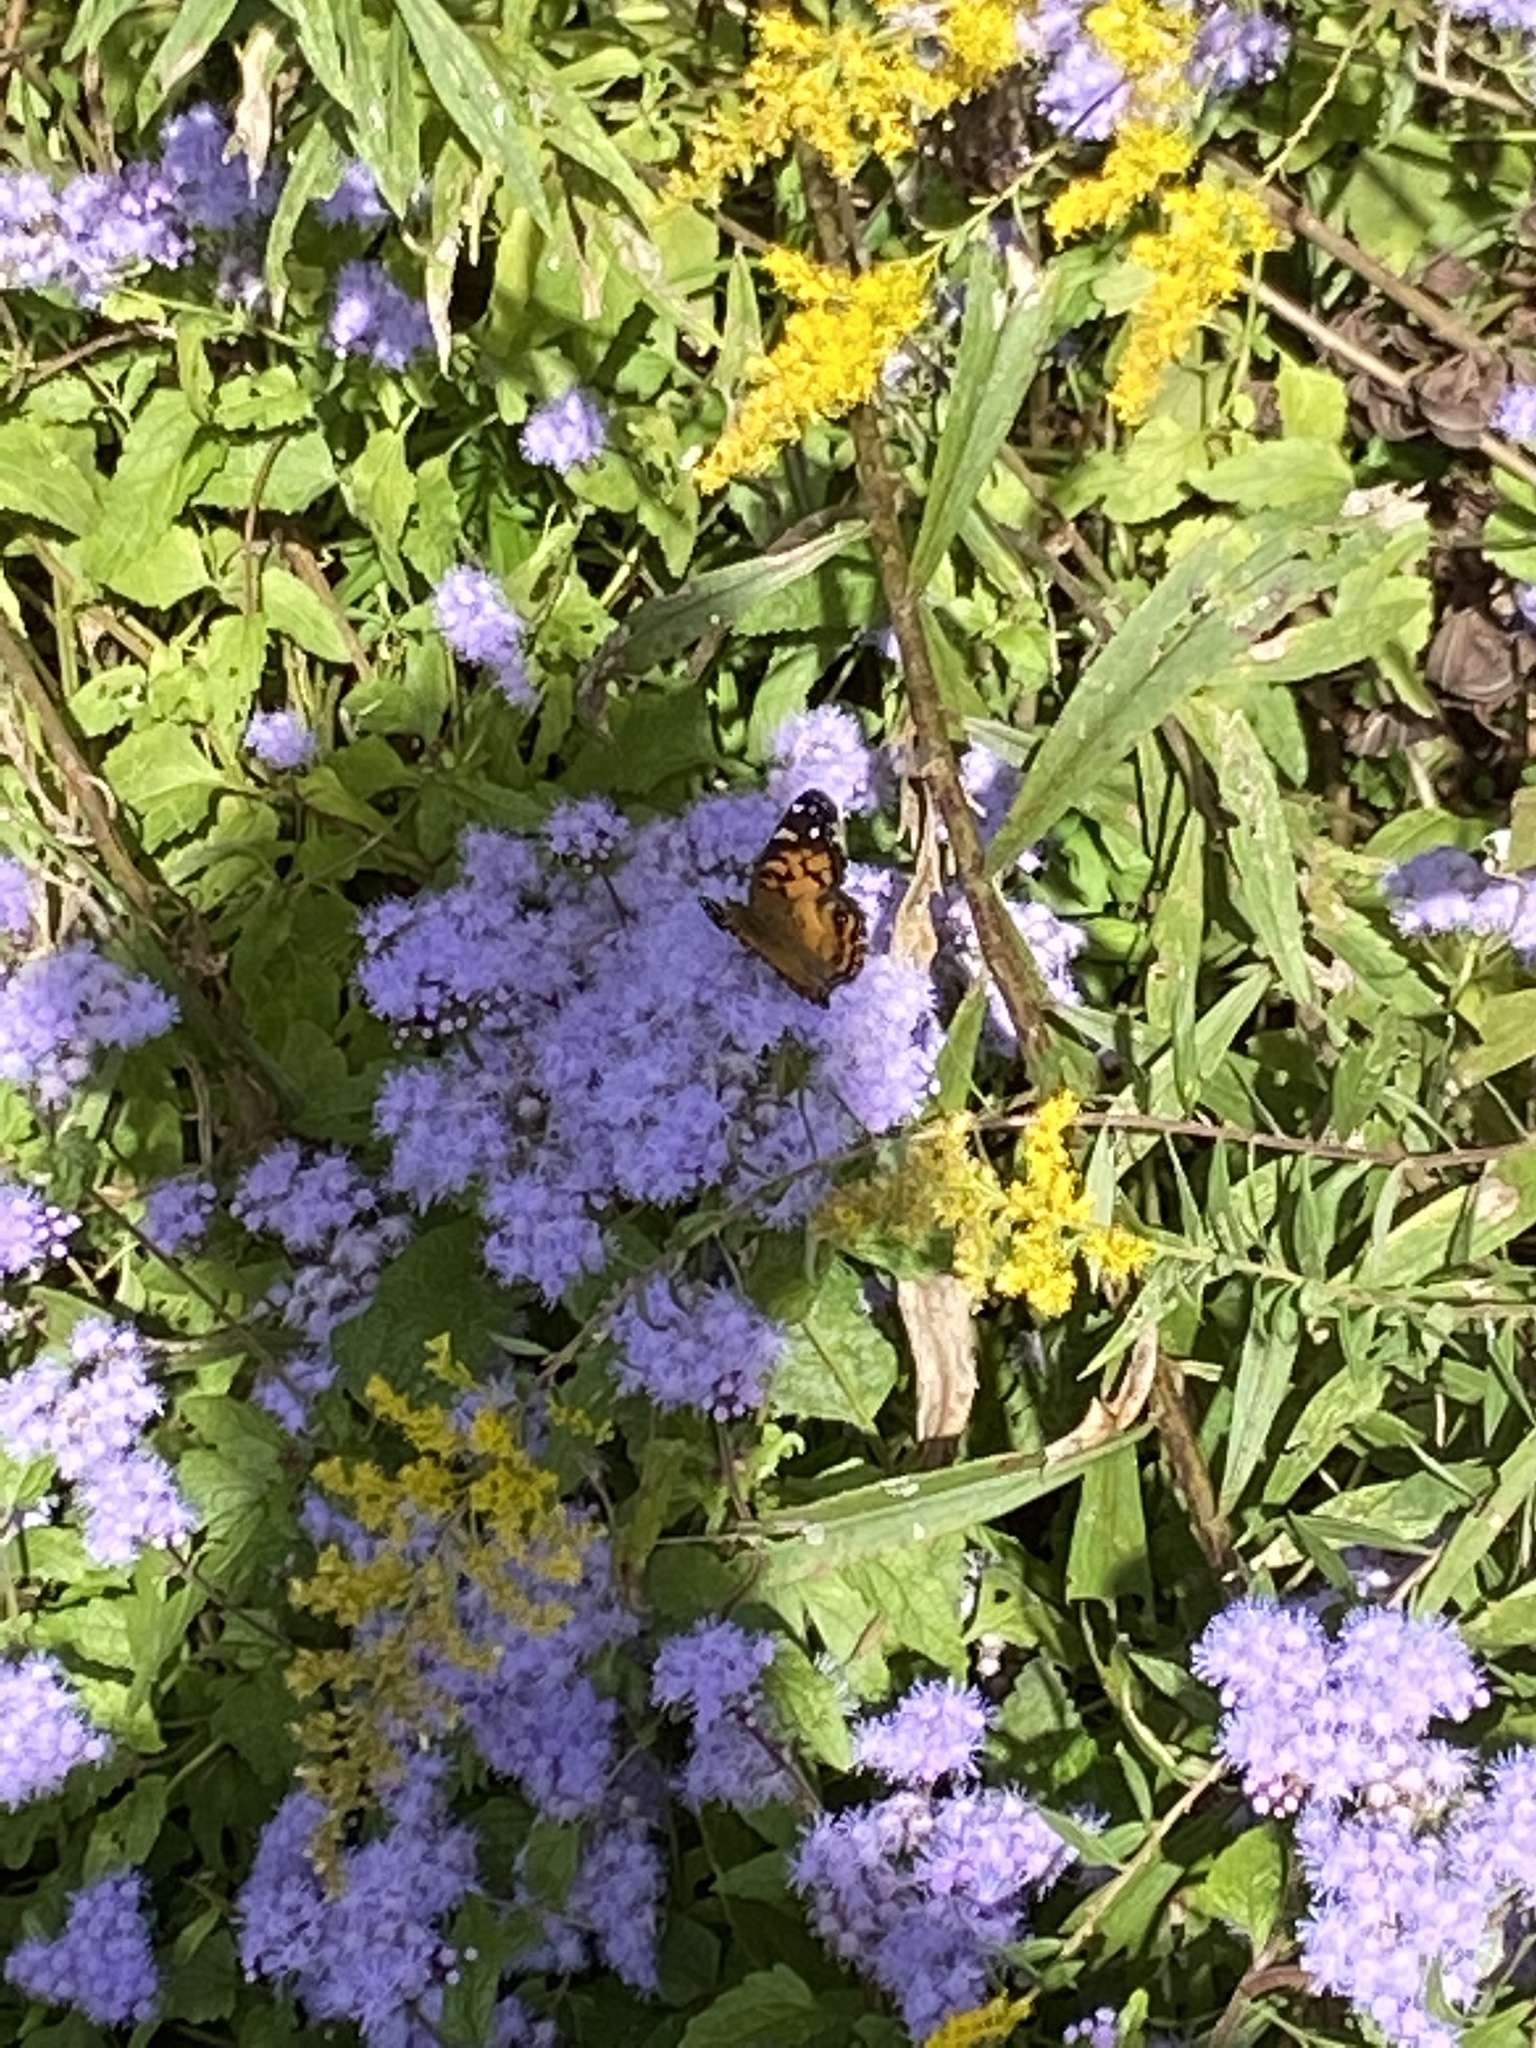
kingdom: Animalia
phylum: Arthropoda
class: Insecta
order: Lepidoptera
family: Nymphalidae
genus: Vanessa
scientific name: Vanessa virginiensis
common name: American lady
